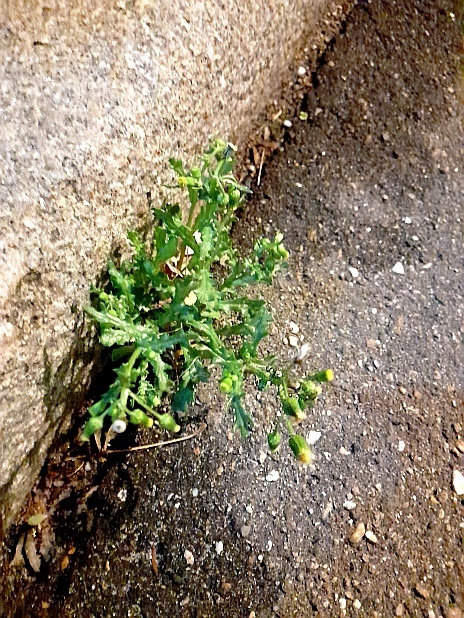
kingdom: Plantae
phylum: Tracheophyta
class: Magnoliopsida
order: Asterales
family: Asteraceae
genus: Senecio
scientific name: Senecio vulgaris
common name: Old-man-in-the-spring
